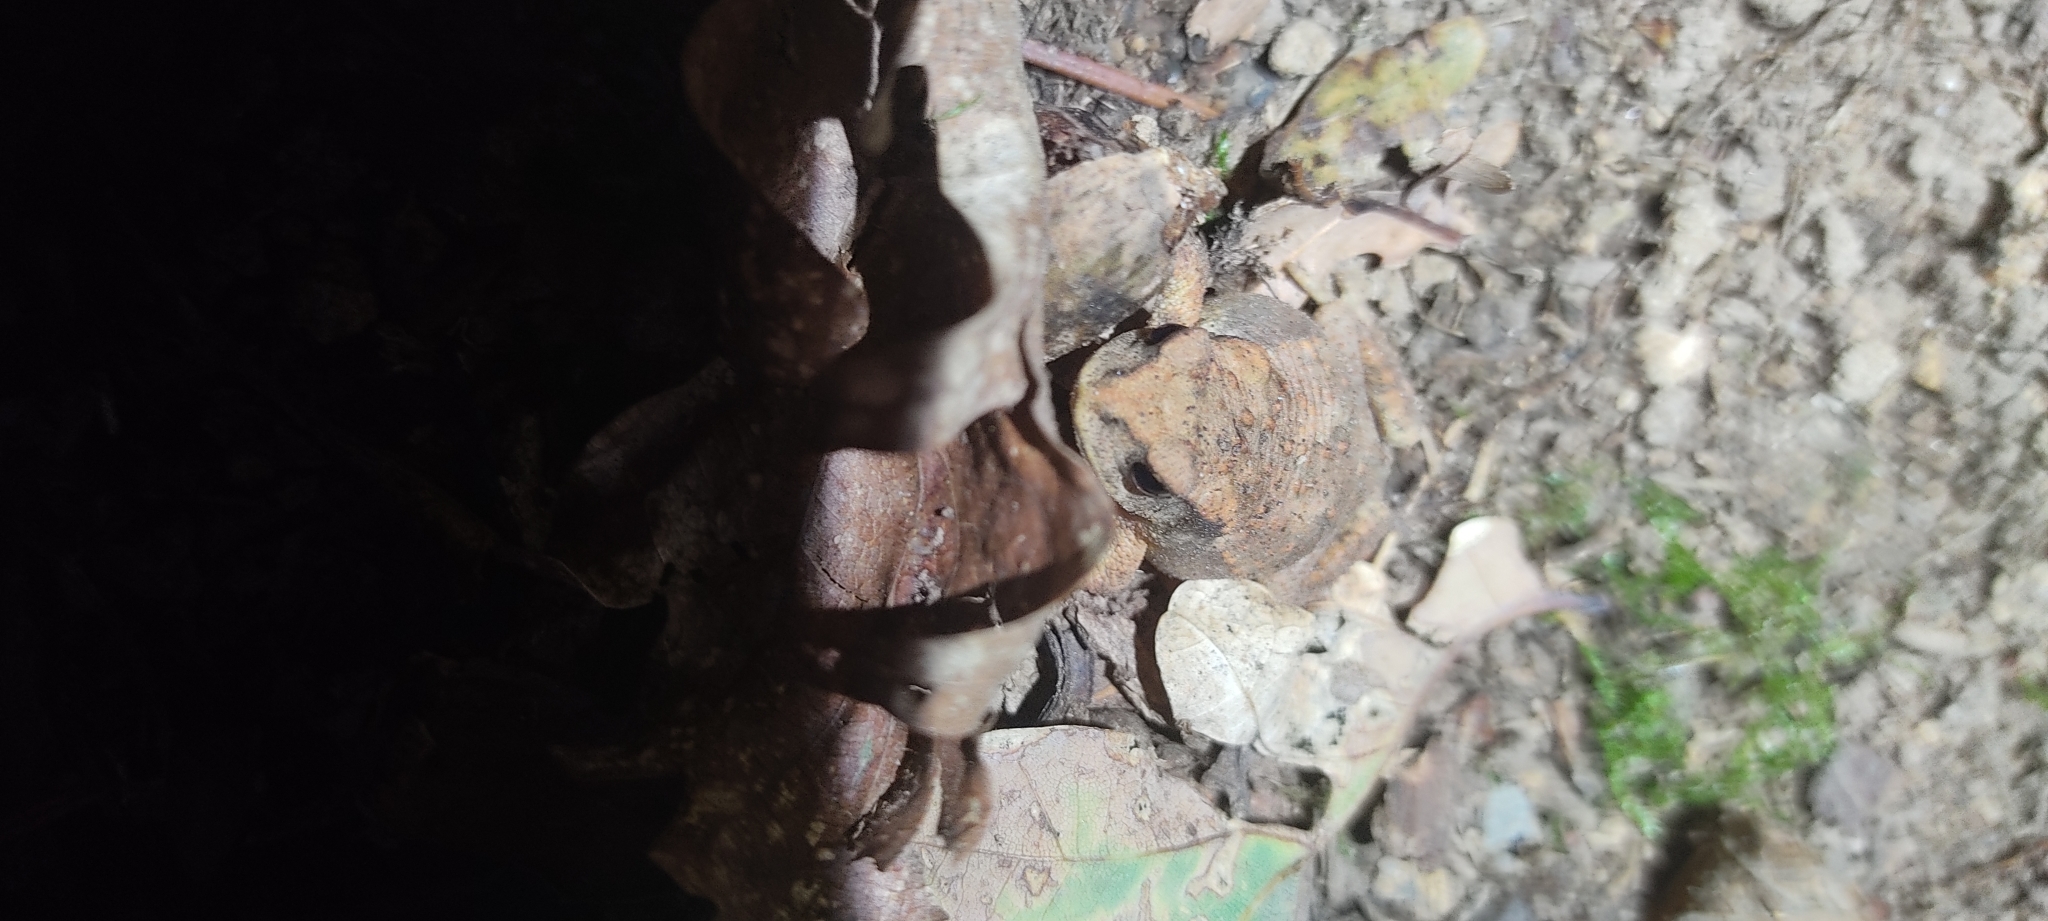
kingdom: Animalia
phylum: Chordata
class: Amphibia
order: Anura
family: Bufonidae
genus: Bufo
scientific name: Bufo spinosus
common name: Western common toad
